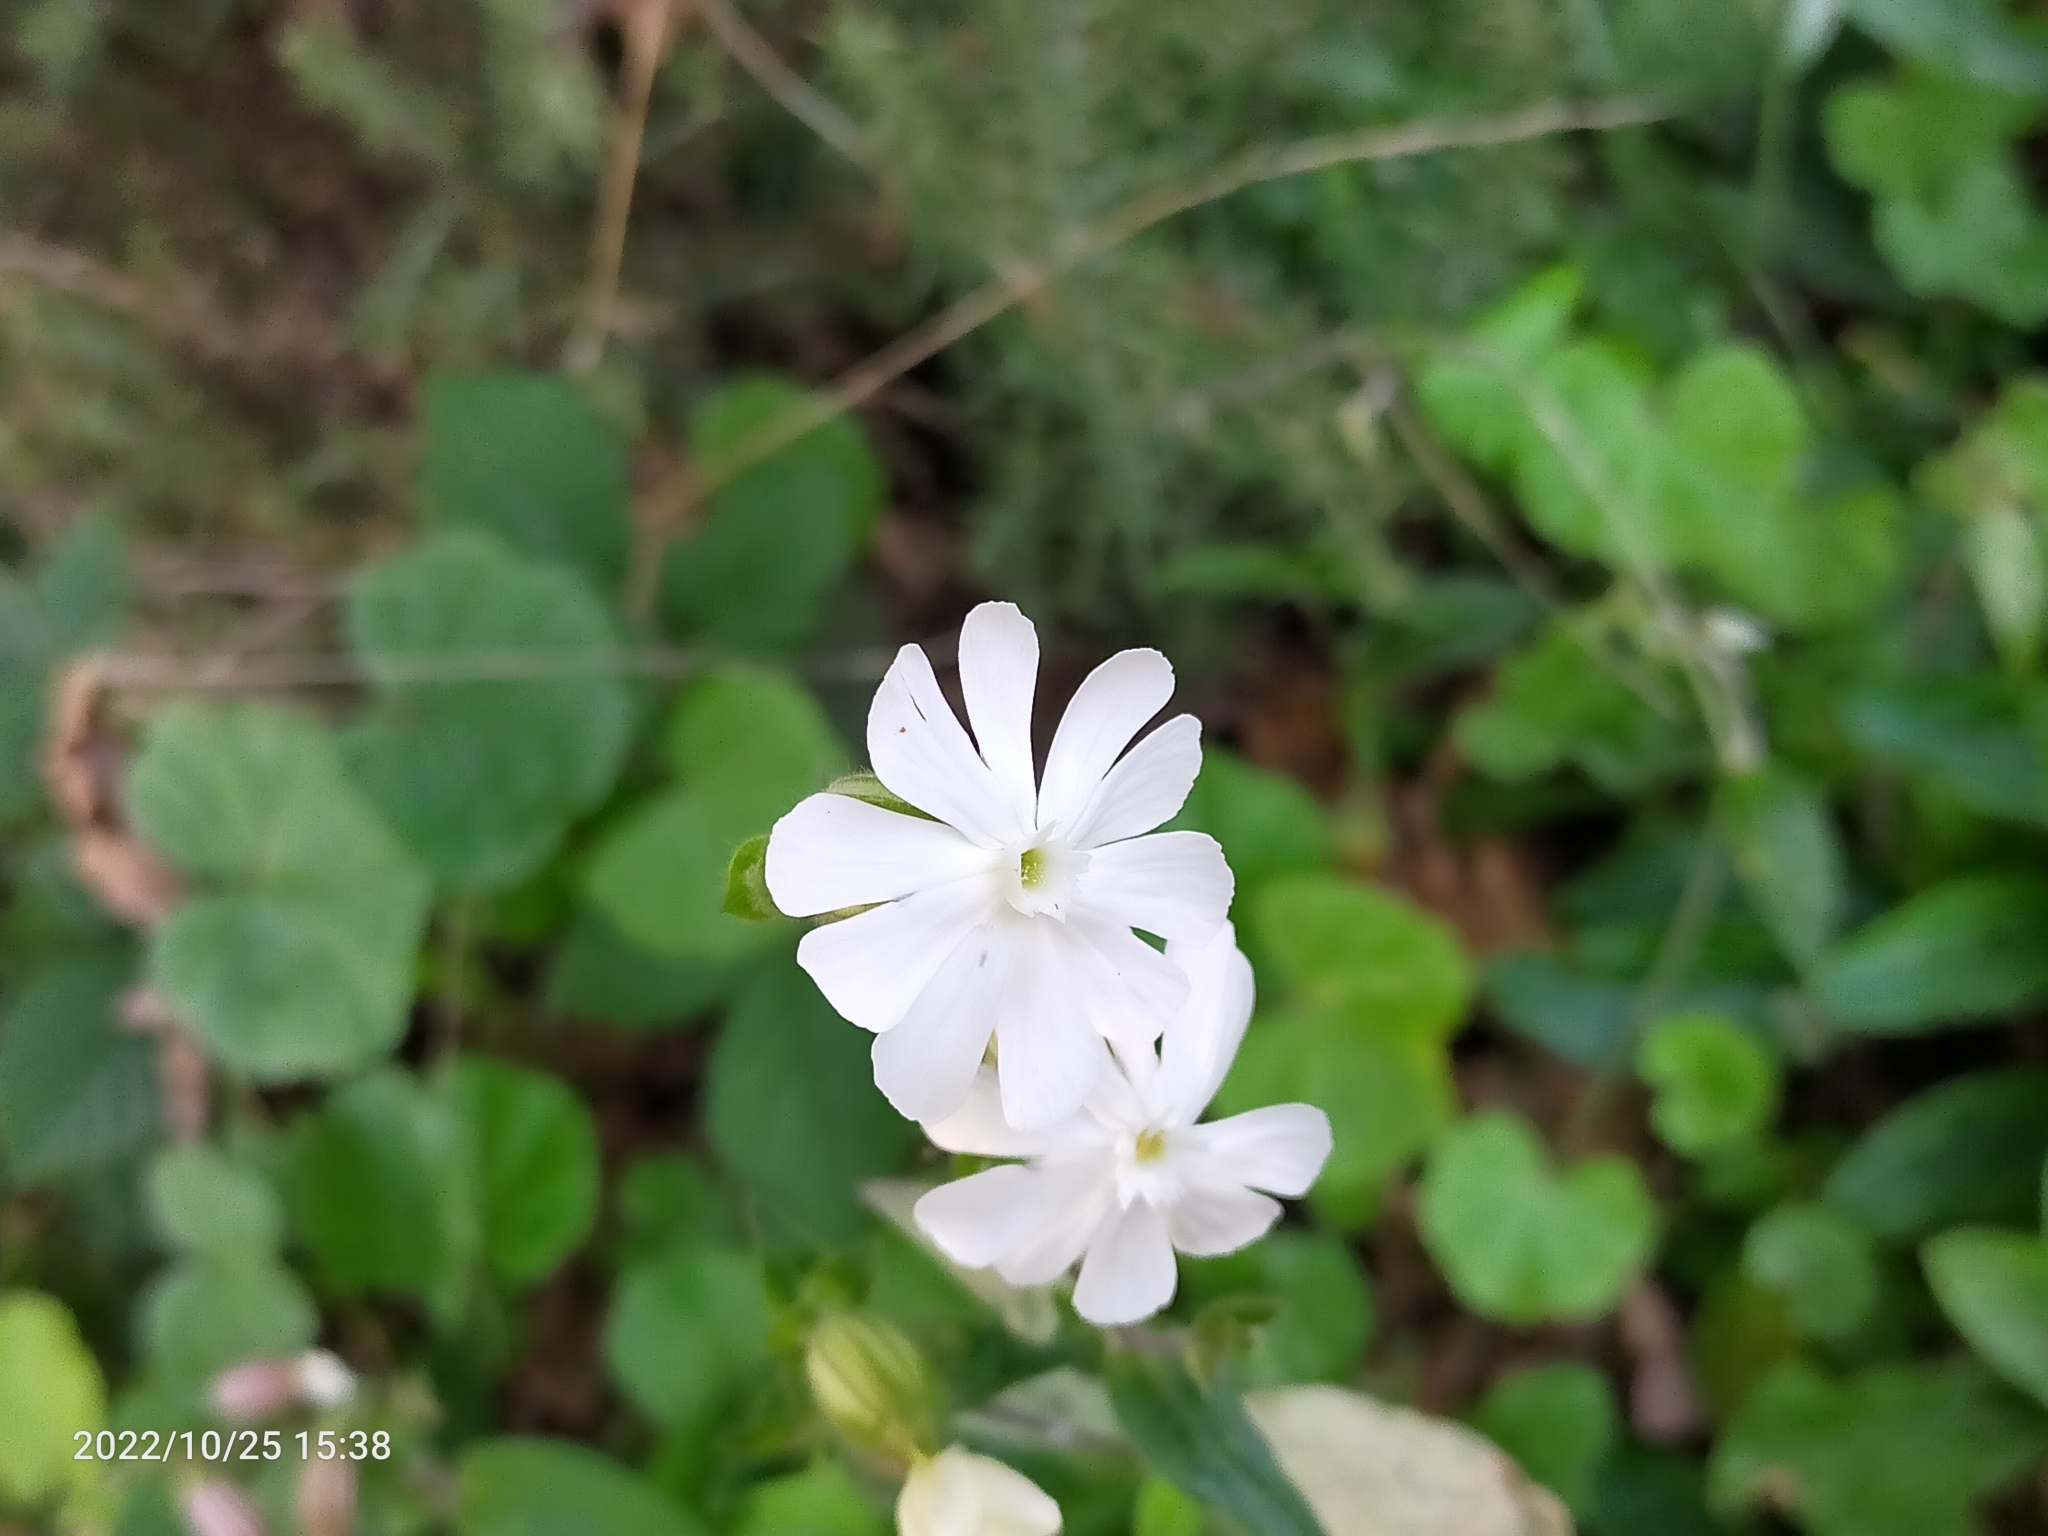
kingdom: Plantae
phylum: Tracheophyta
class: Magnoliopsida
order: Caryophyllales
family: Caryophyllaceae
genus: Silene
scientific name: Silene latifolia
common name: White campion
